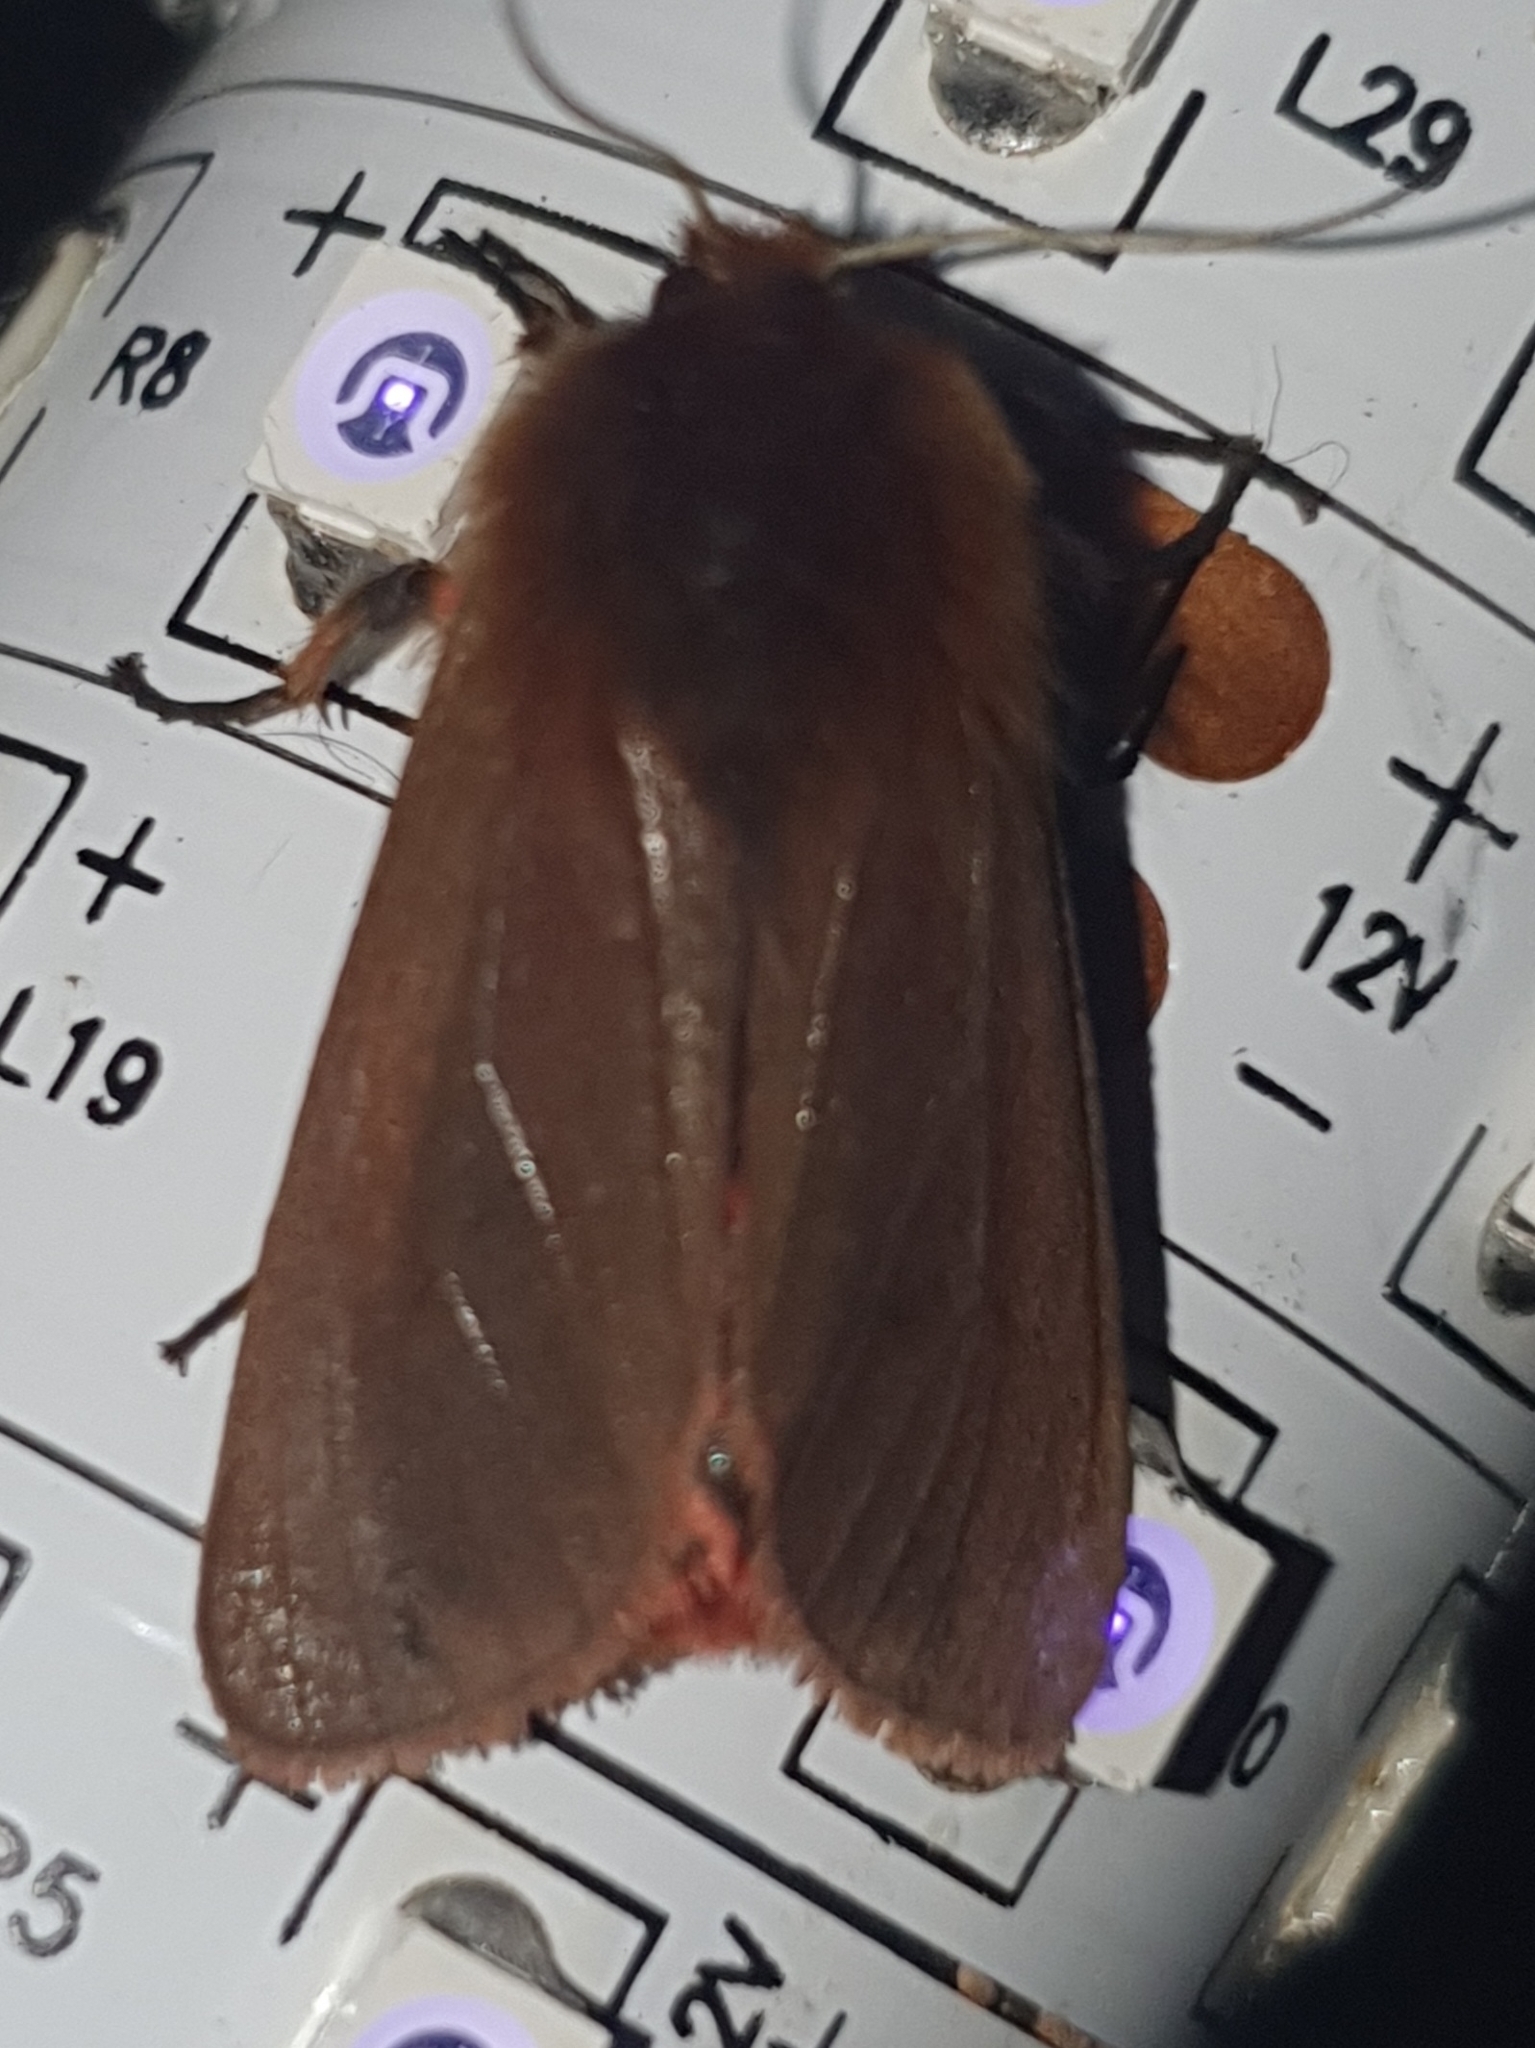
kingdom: Animalia
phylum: Arthropoda
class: Insecta
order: Lepidoptera
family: Erebidae
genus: Phragmatobia
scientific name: Phragmatobia fuliginosa
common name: Ruby tiger
